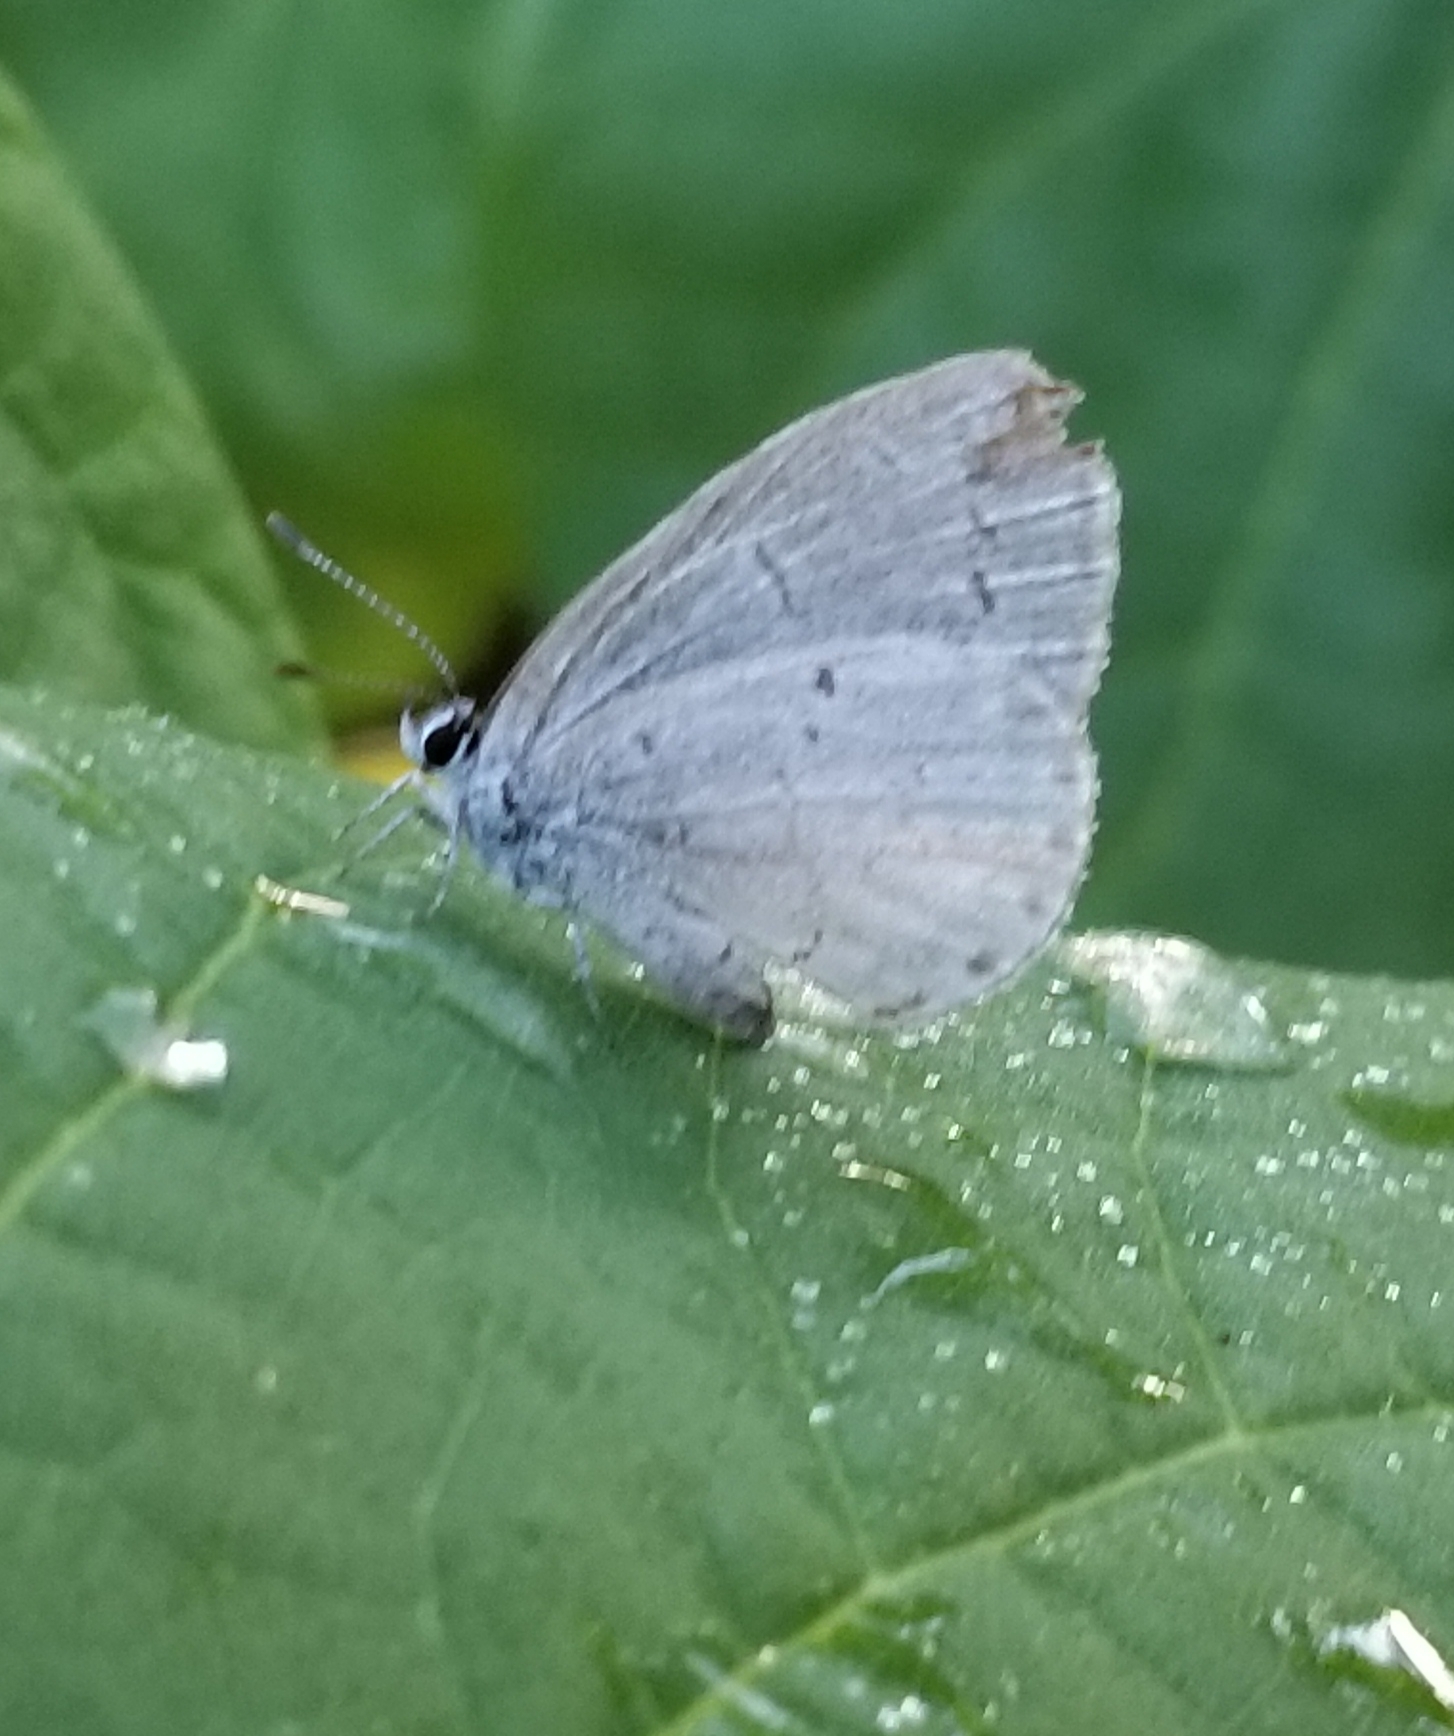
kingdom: Animalia
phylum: Arthropoda
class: Insecta
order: Lepidoptera
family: Lycaenidae
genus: Cyaniris
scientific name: Cyaniris neglecta
